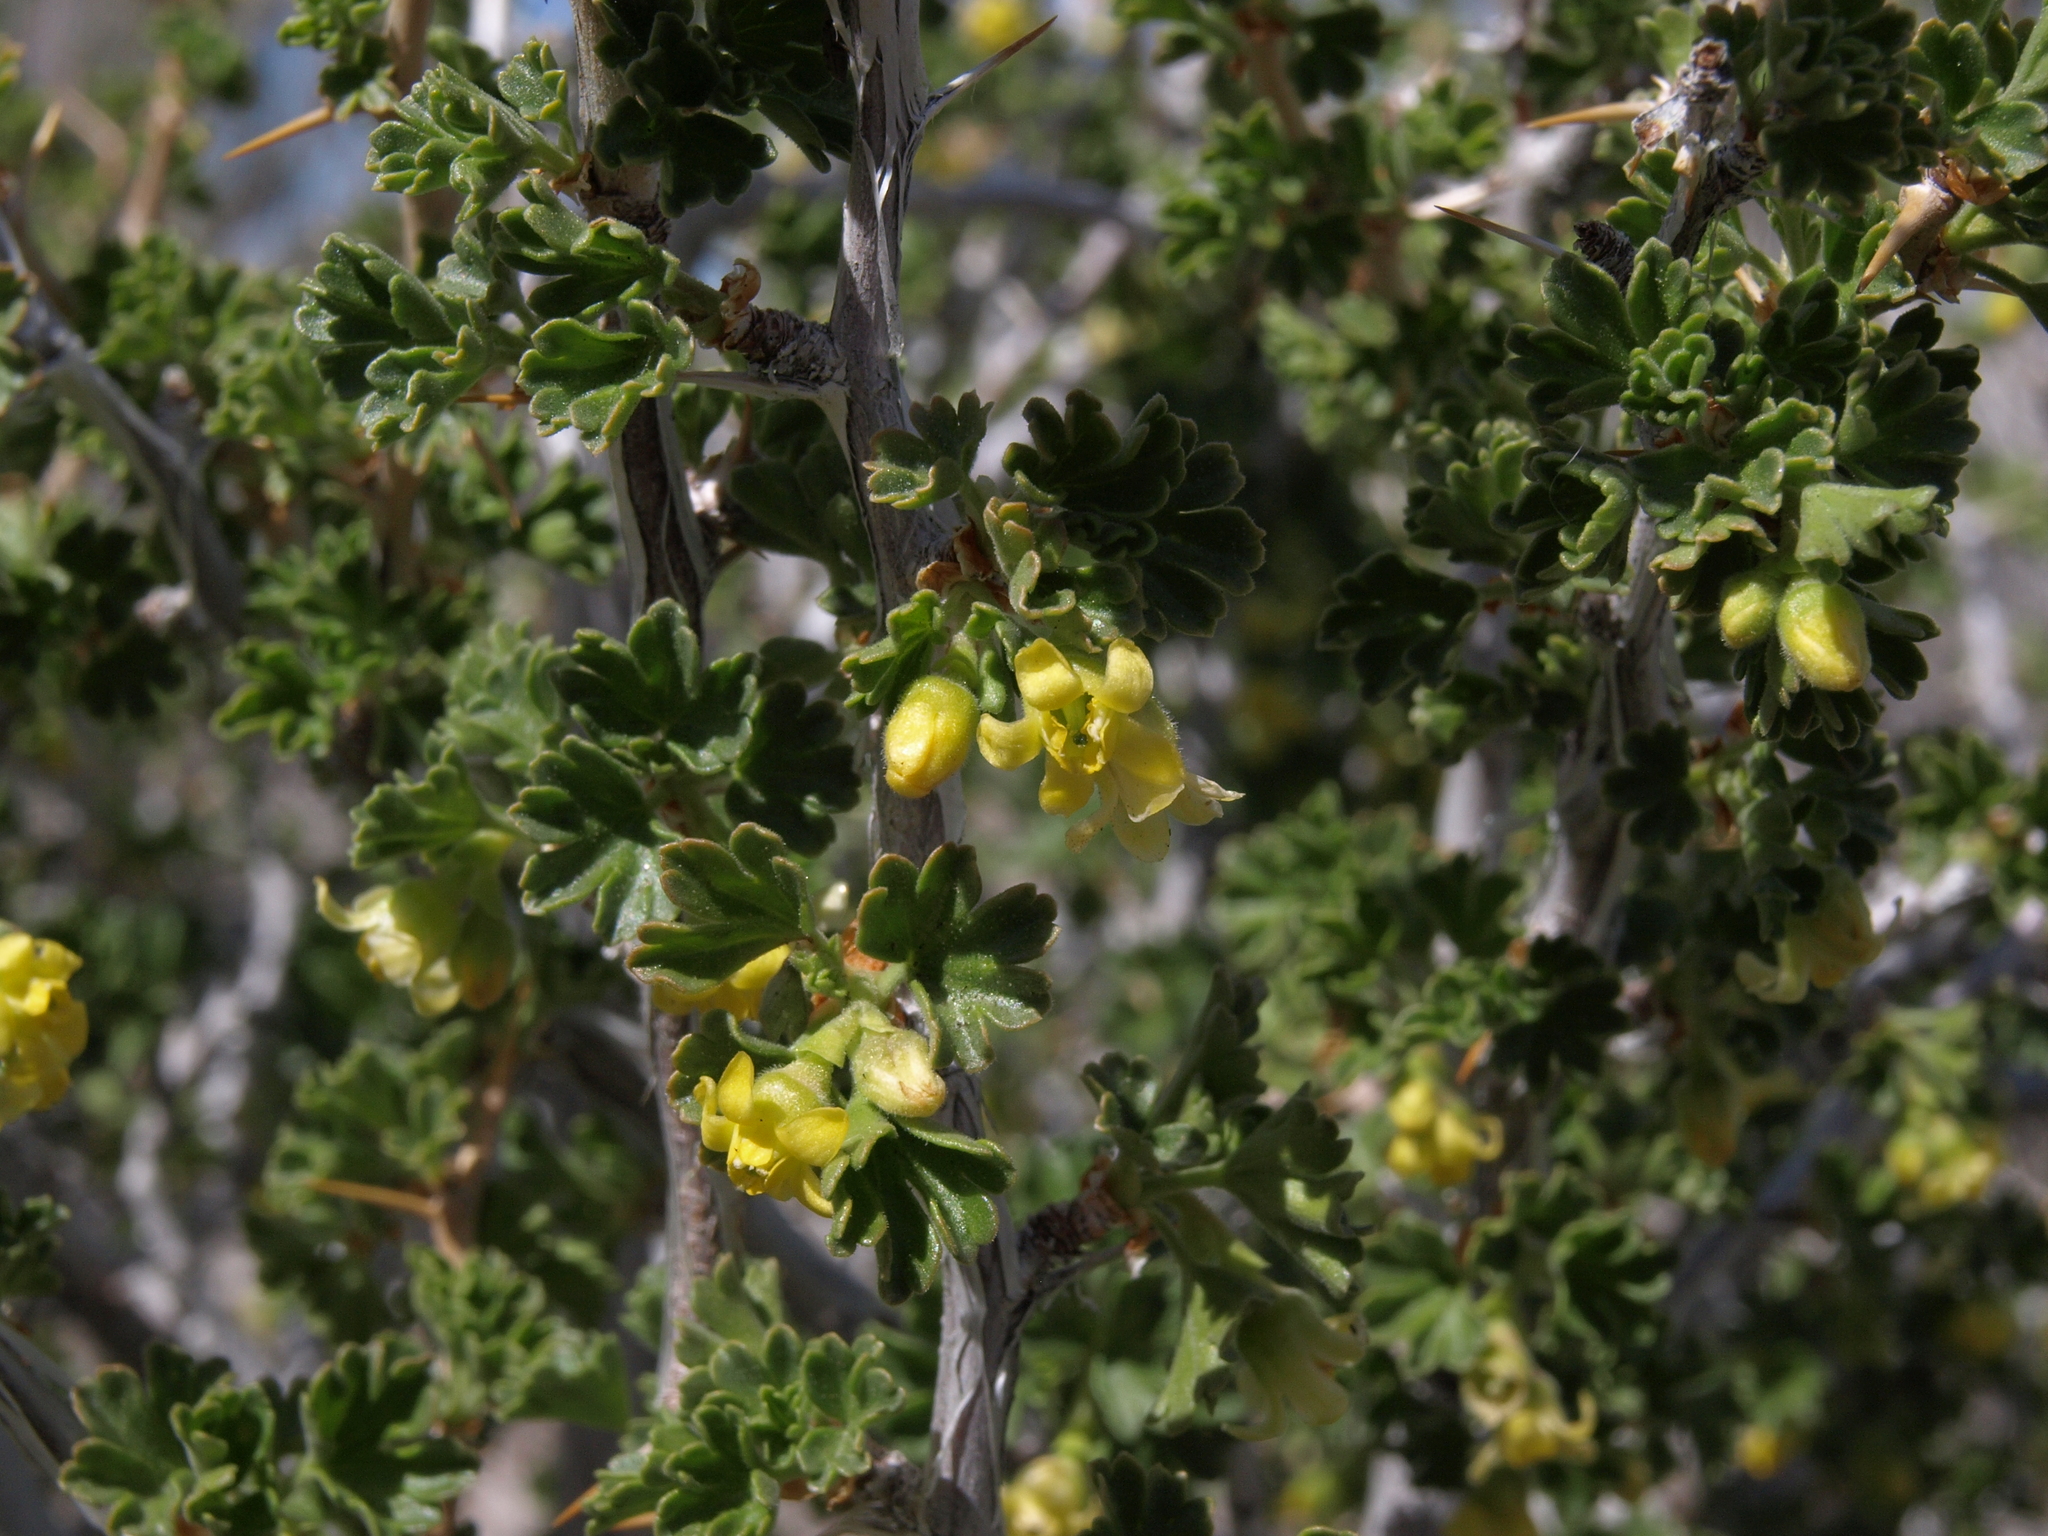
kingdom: Plantae
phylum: Tracheophyta
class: Magnoliopsida
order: Saxifragales
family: Grossulariaceae
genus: Ribes
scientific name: Ribes velutinum
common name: Desert gooseberry
